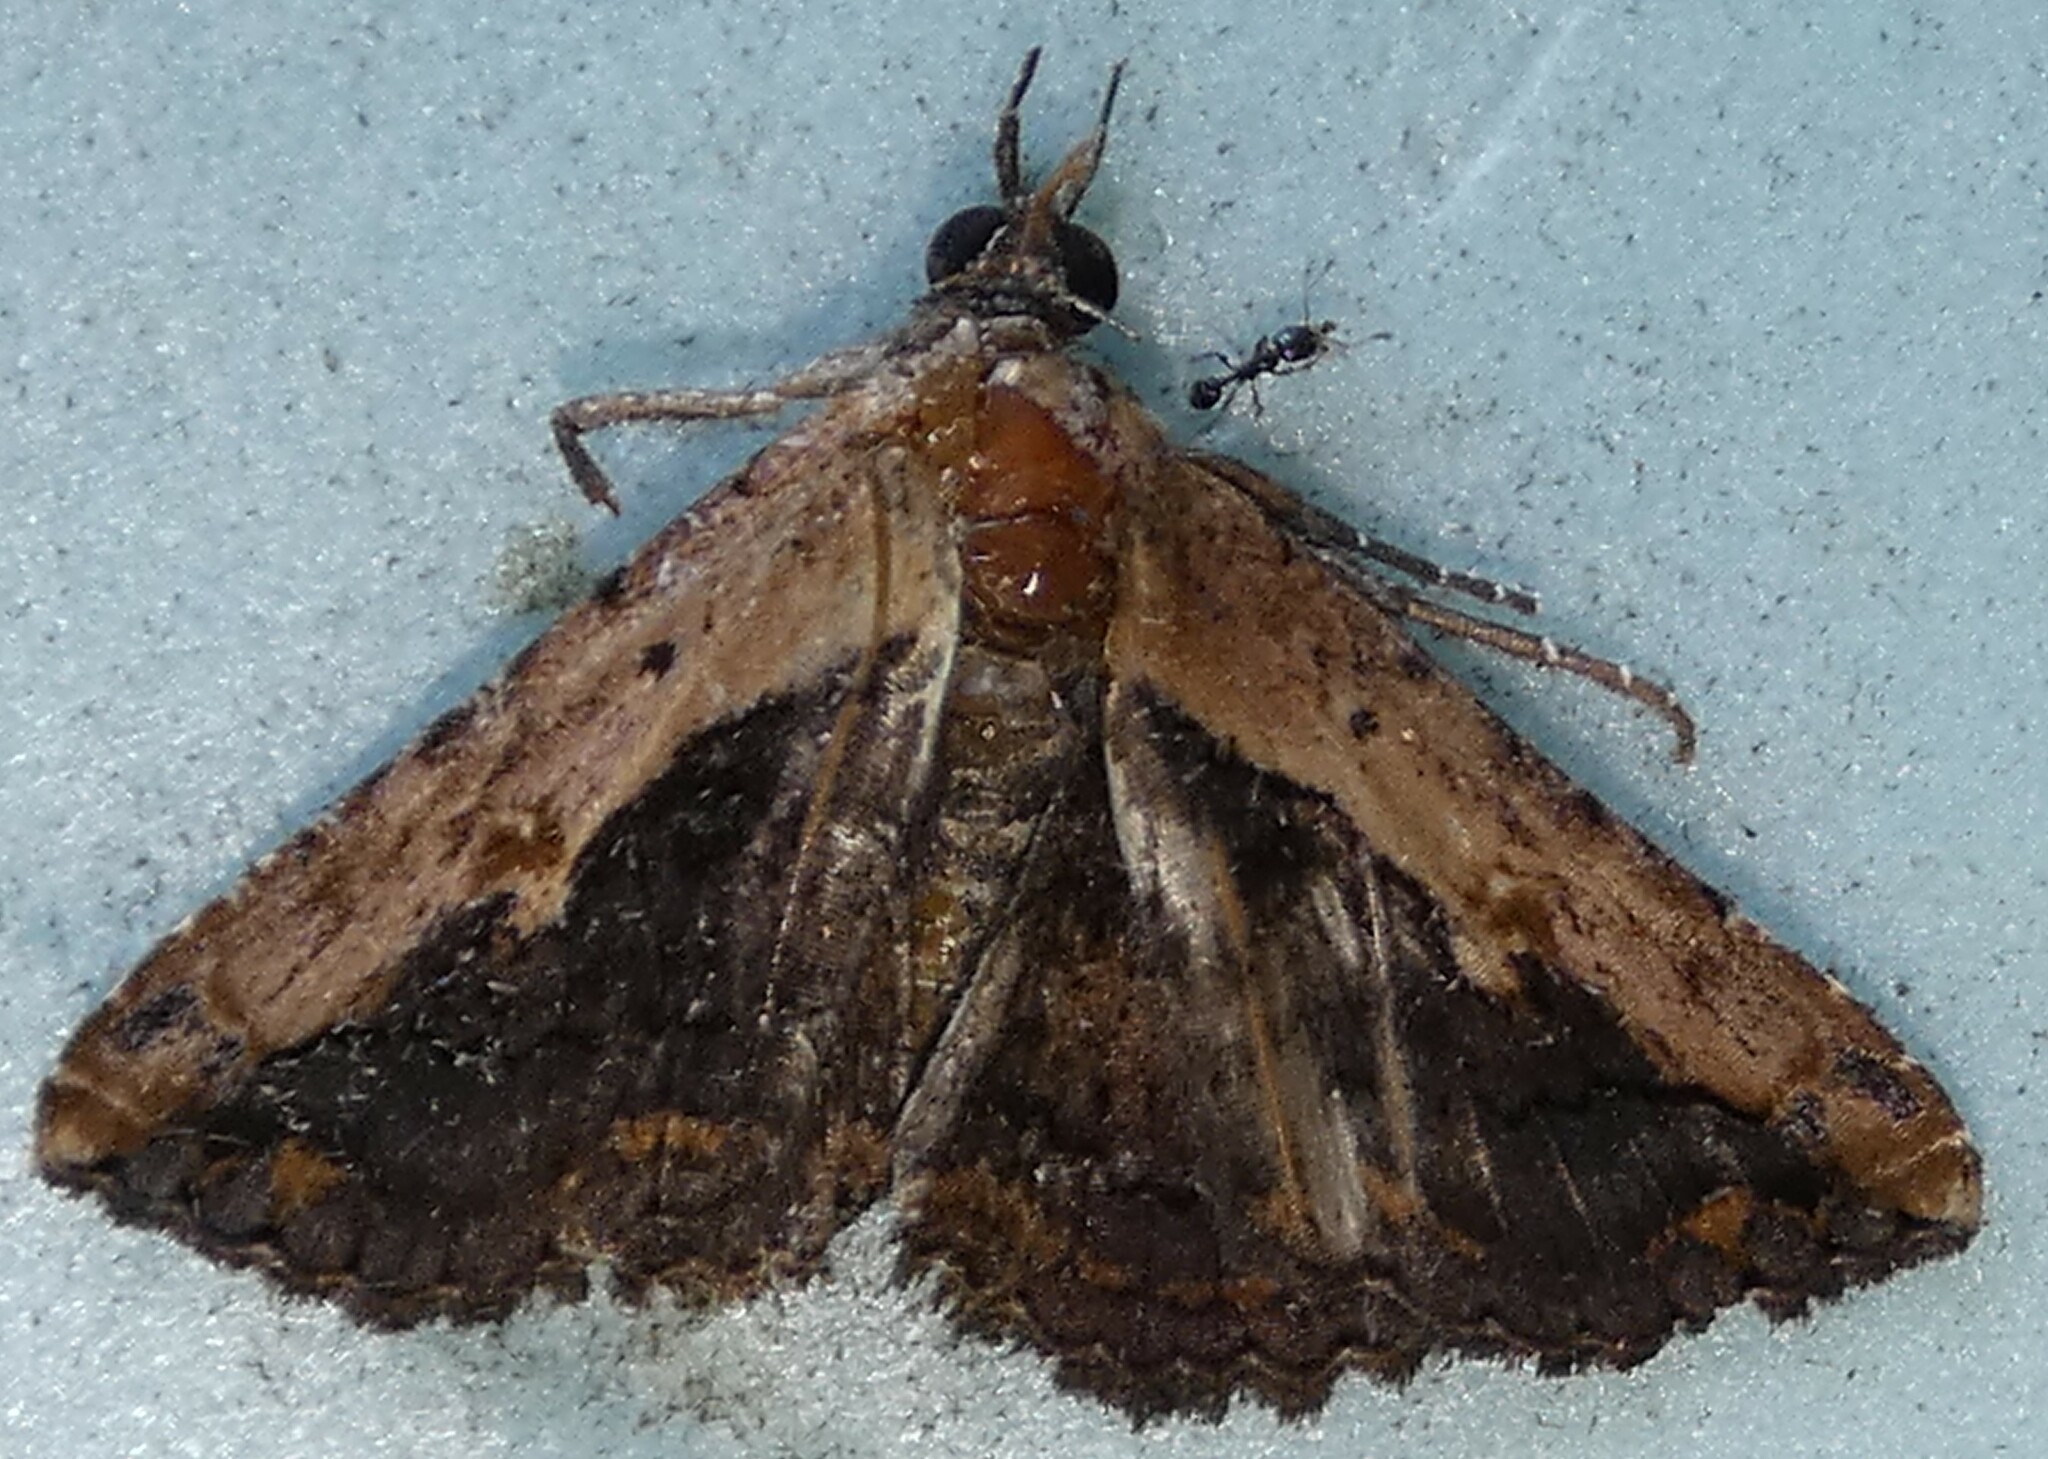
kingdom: Animalia
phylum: Arthropoda
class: Insecta
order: Lepidoptera
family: Erebidae
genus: Selenisa
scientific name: Selenisa sueroides
